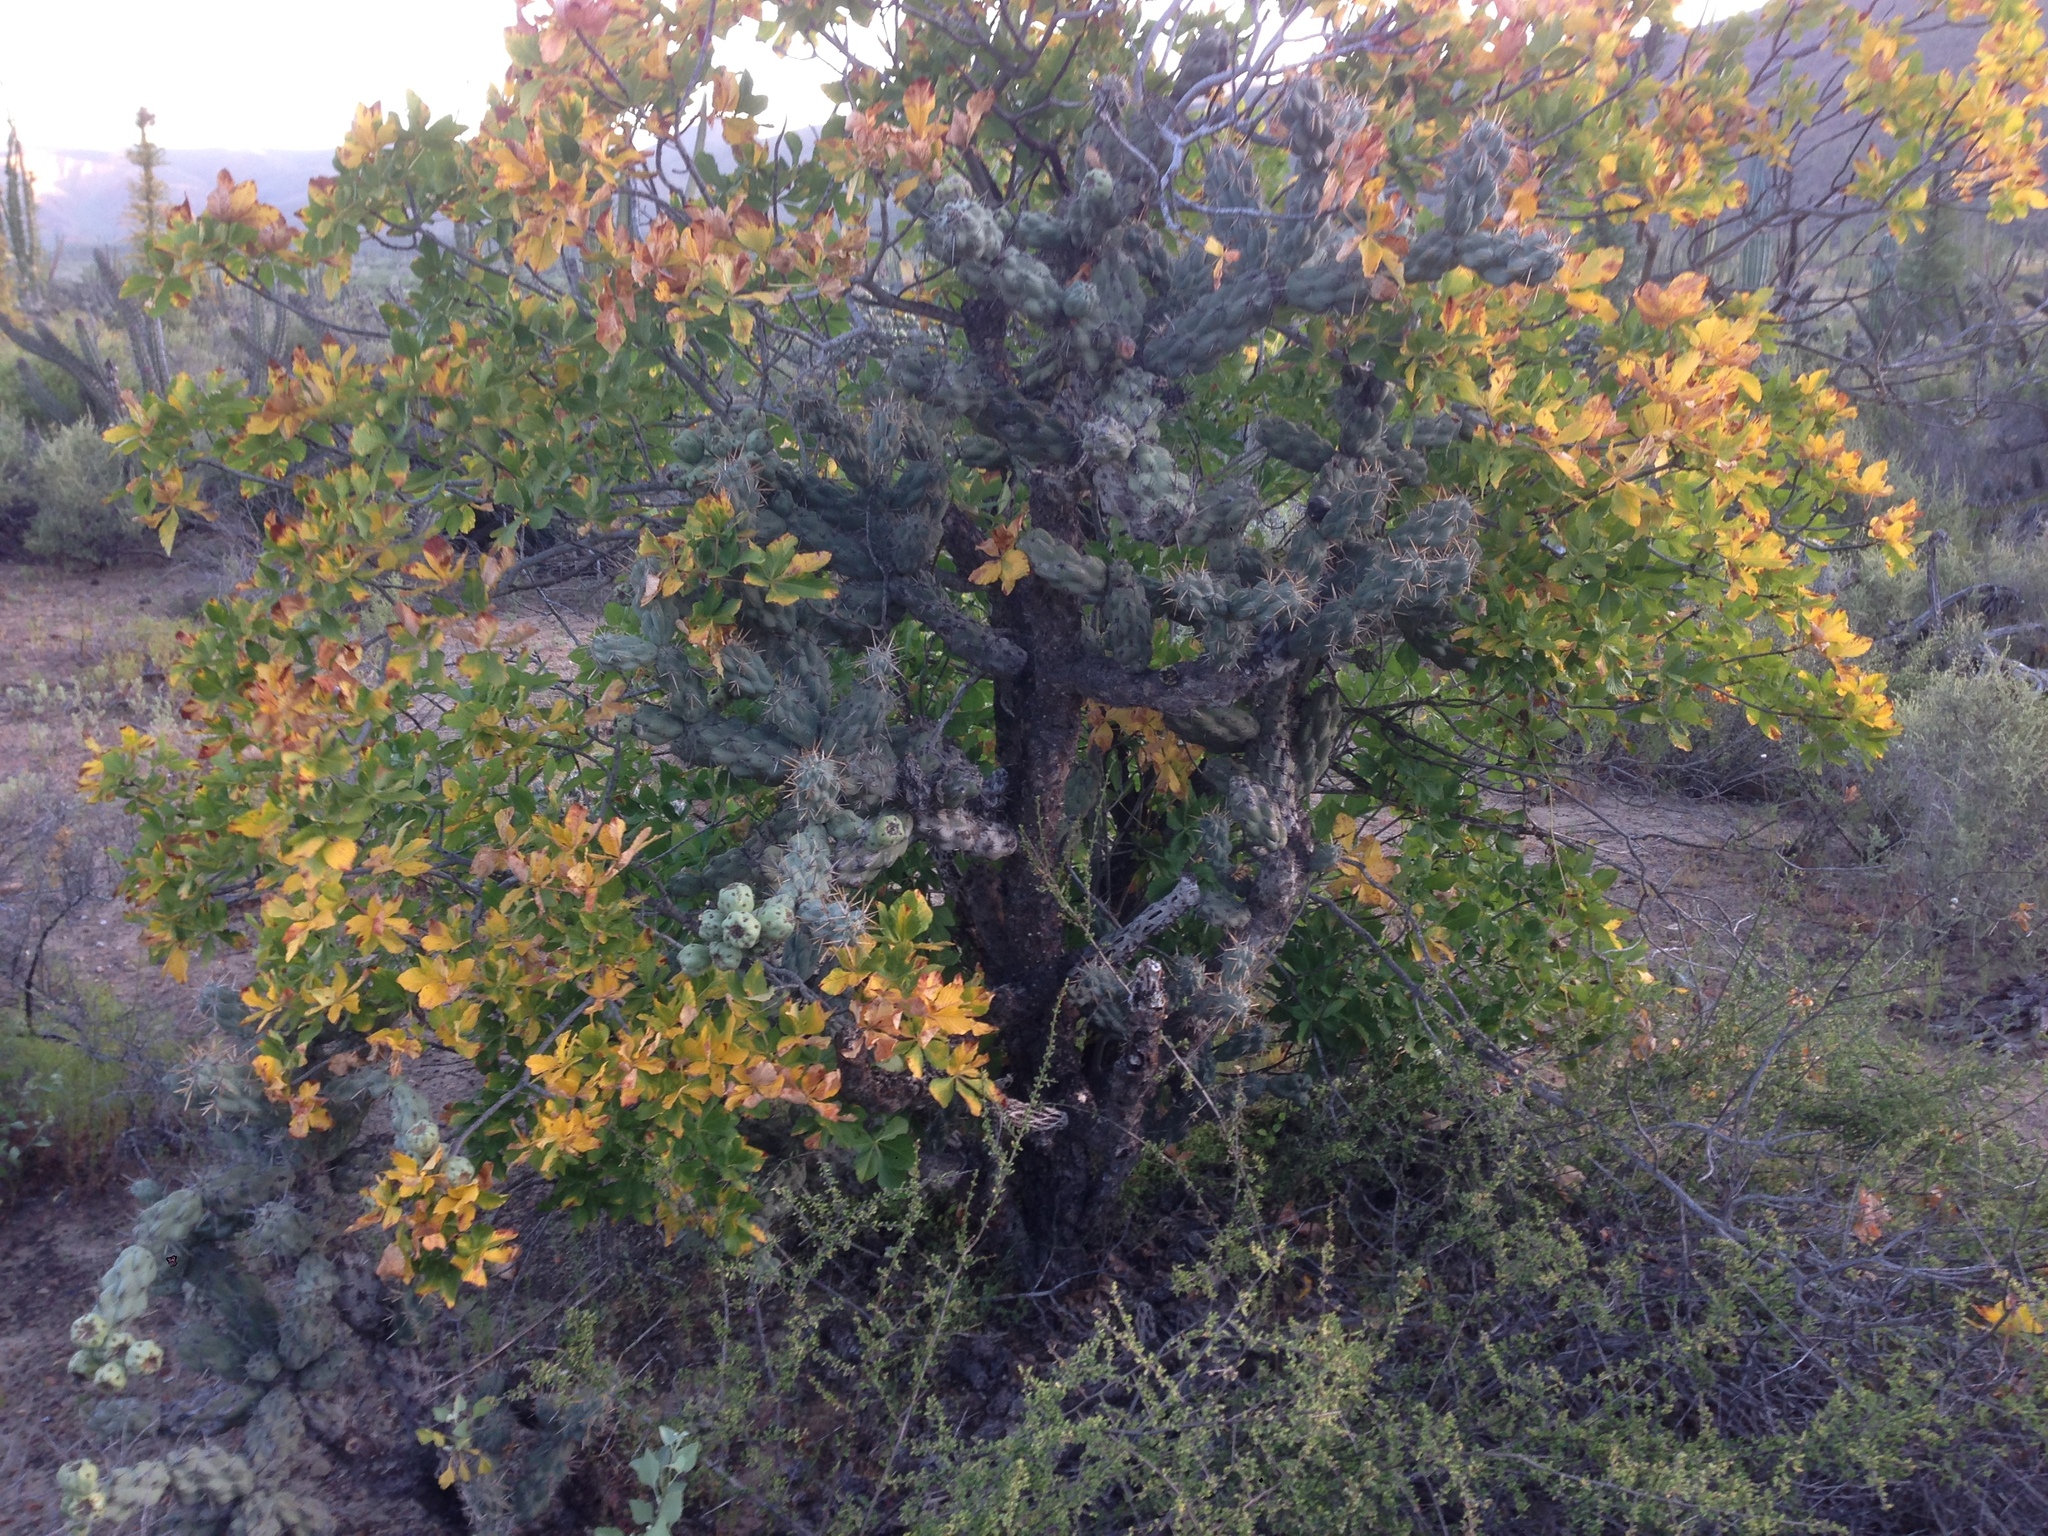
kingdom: Plantae
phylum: Tracheophyta
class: Magnoliopsida
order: Sapindales
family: Sapindaceae
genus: Aesculus
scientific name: Aesculus parryi
